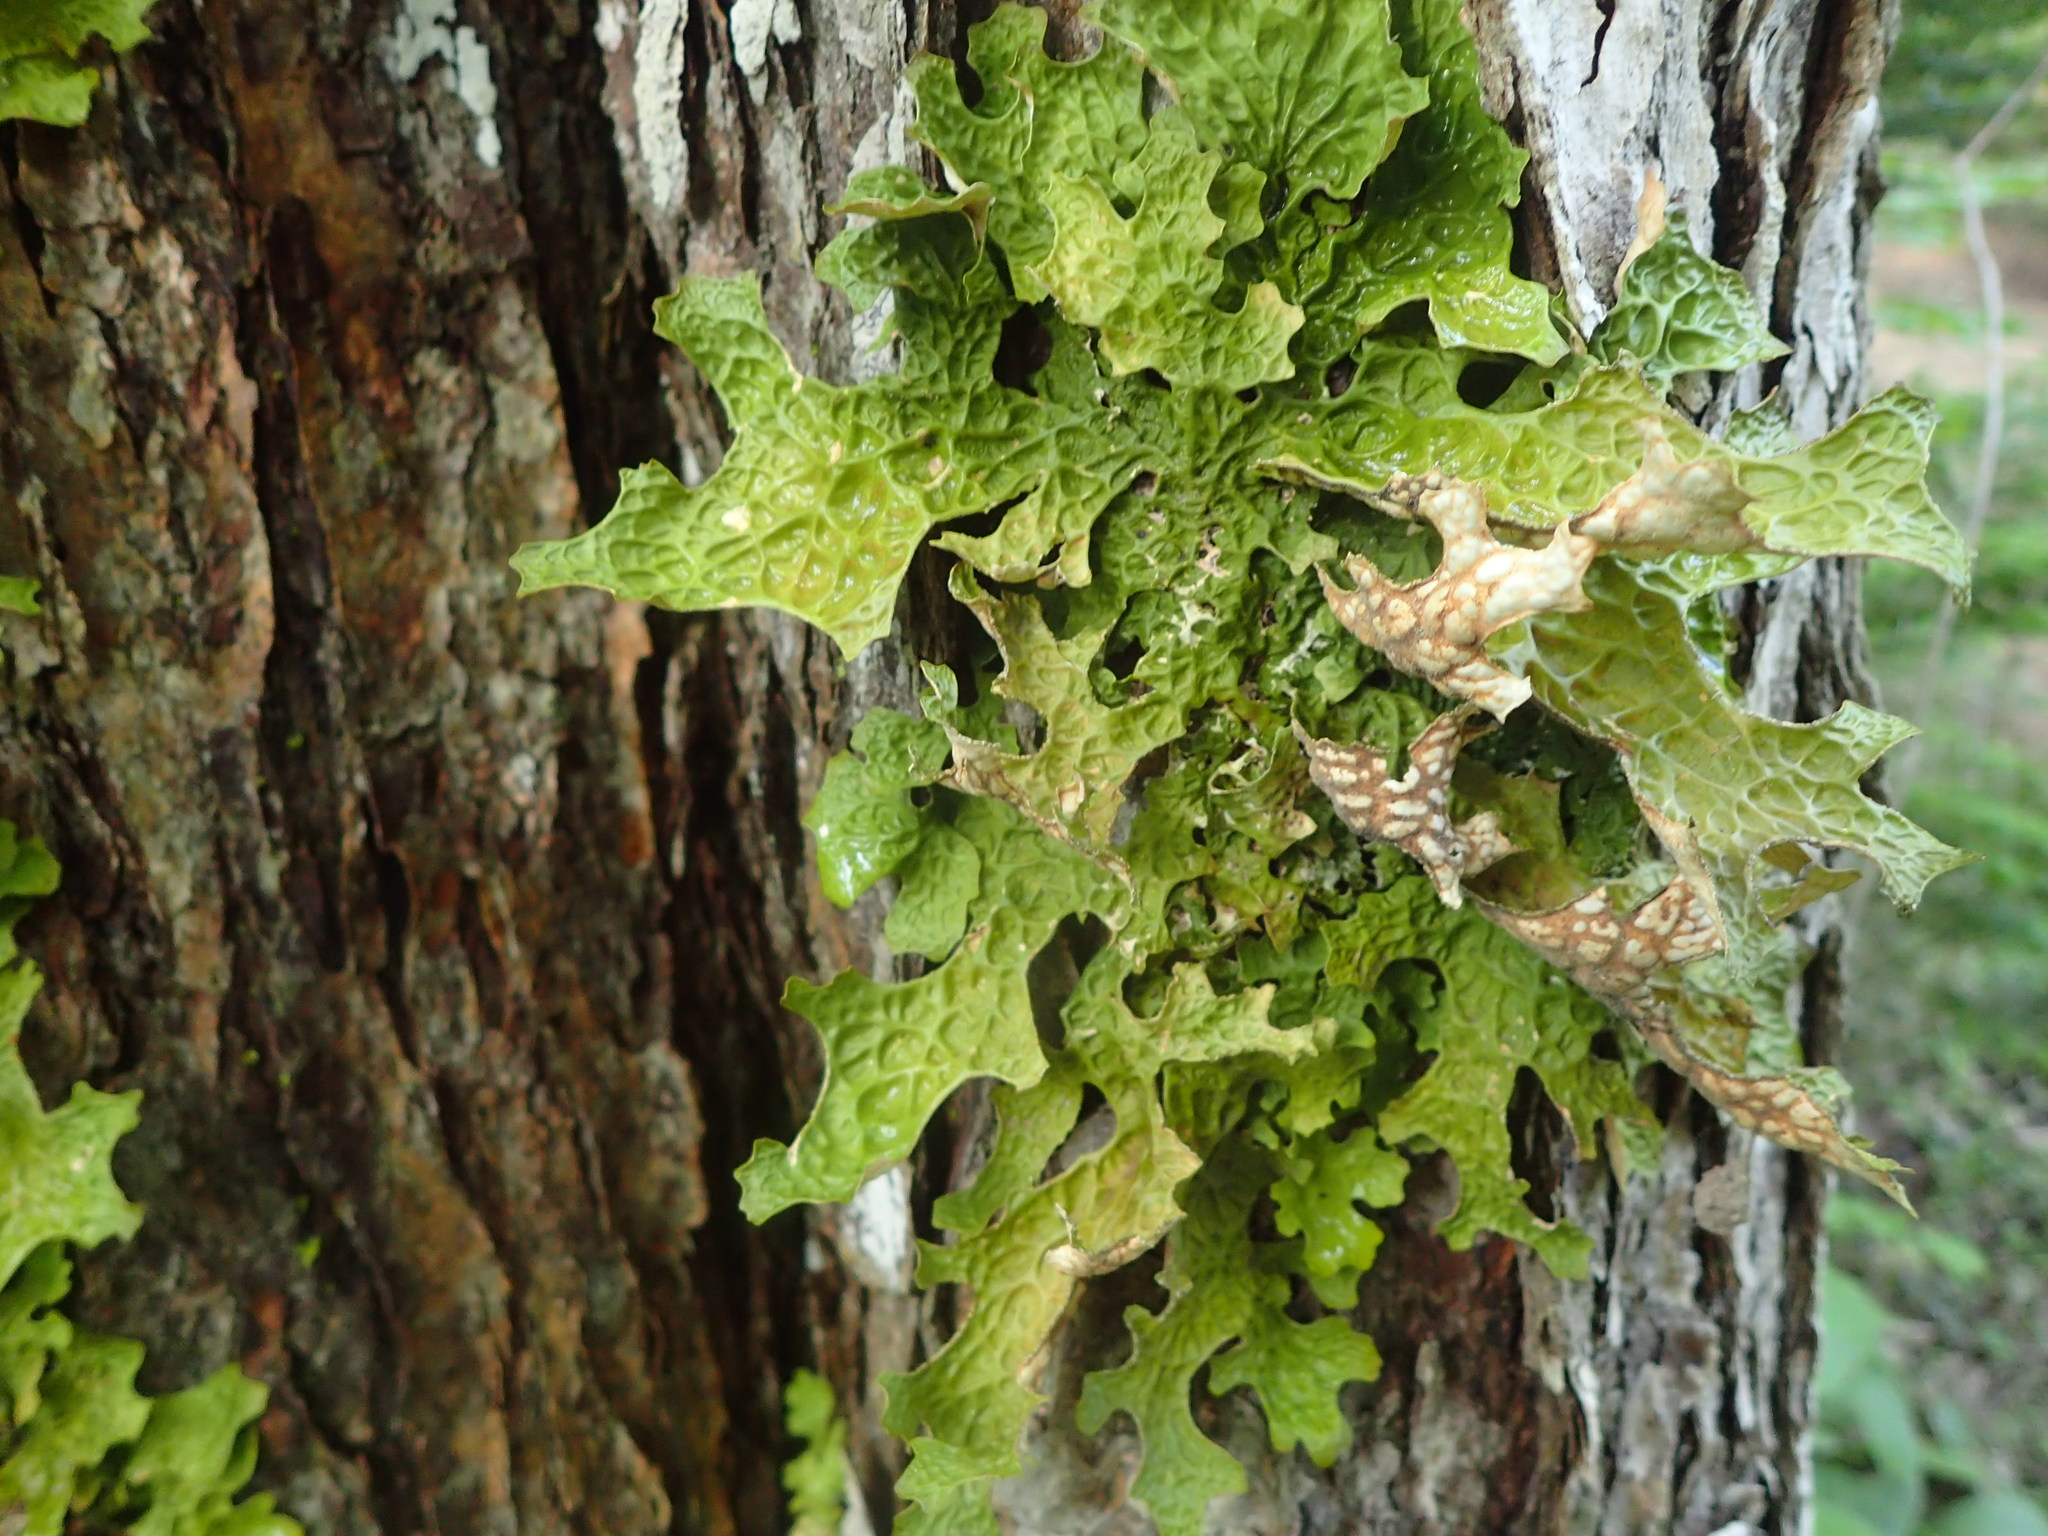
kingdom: Fungi
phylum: Ascomycota
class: Lecanoromycetes
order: Peltigerales
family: Lobariaceae
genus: Lobaria
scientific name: Lobaria pulmonaria
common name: Lungwort
